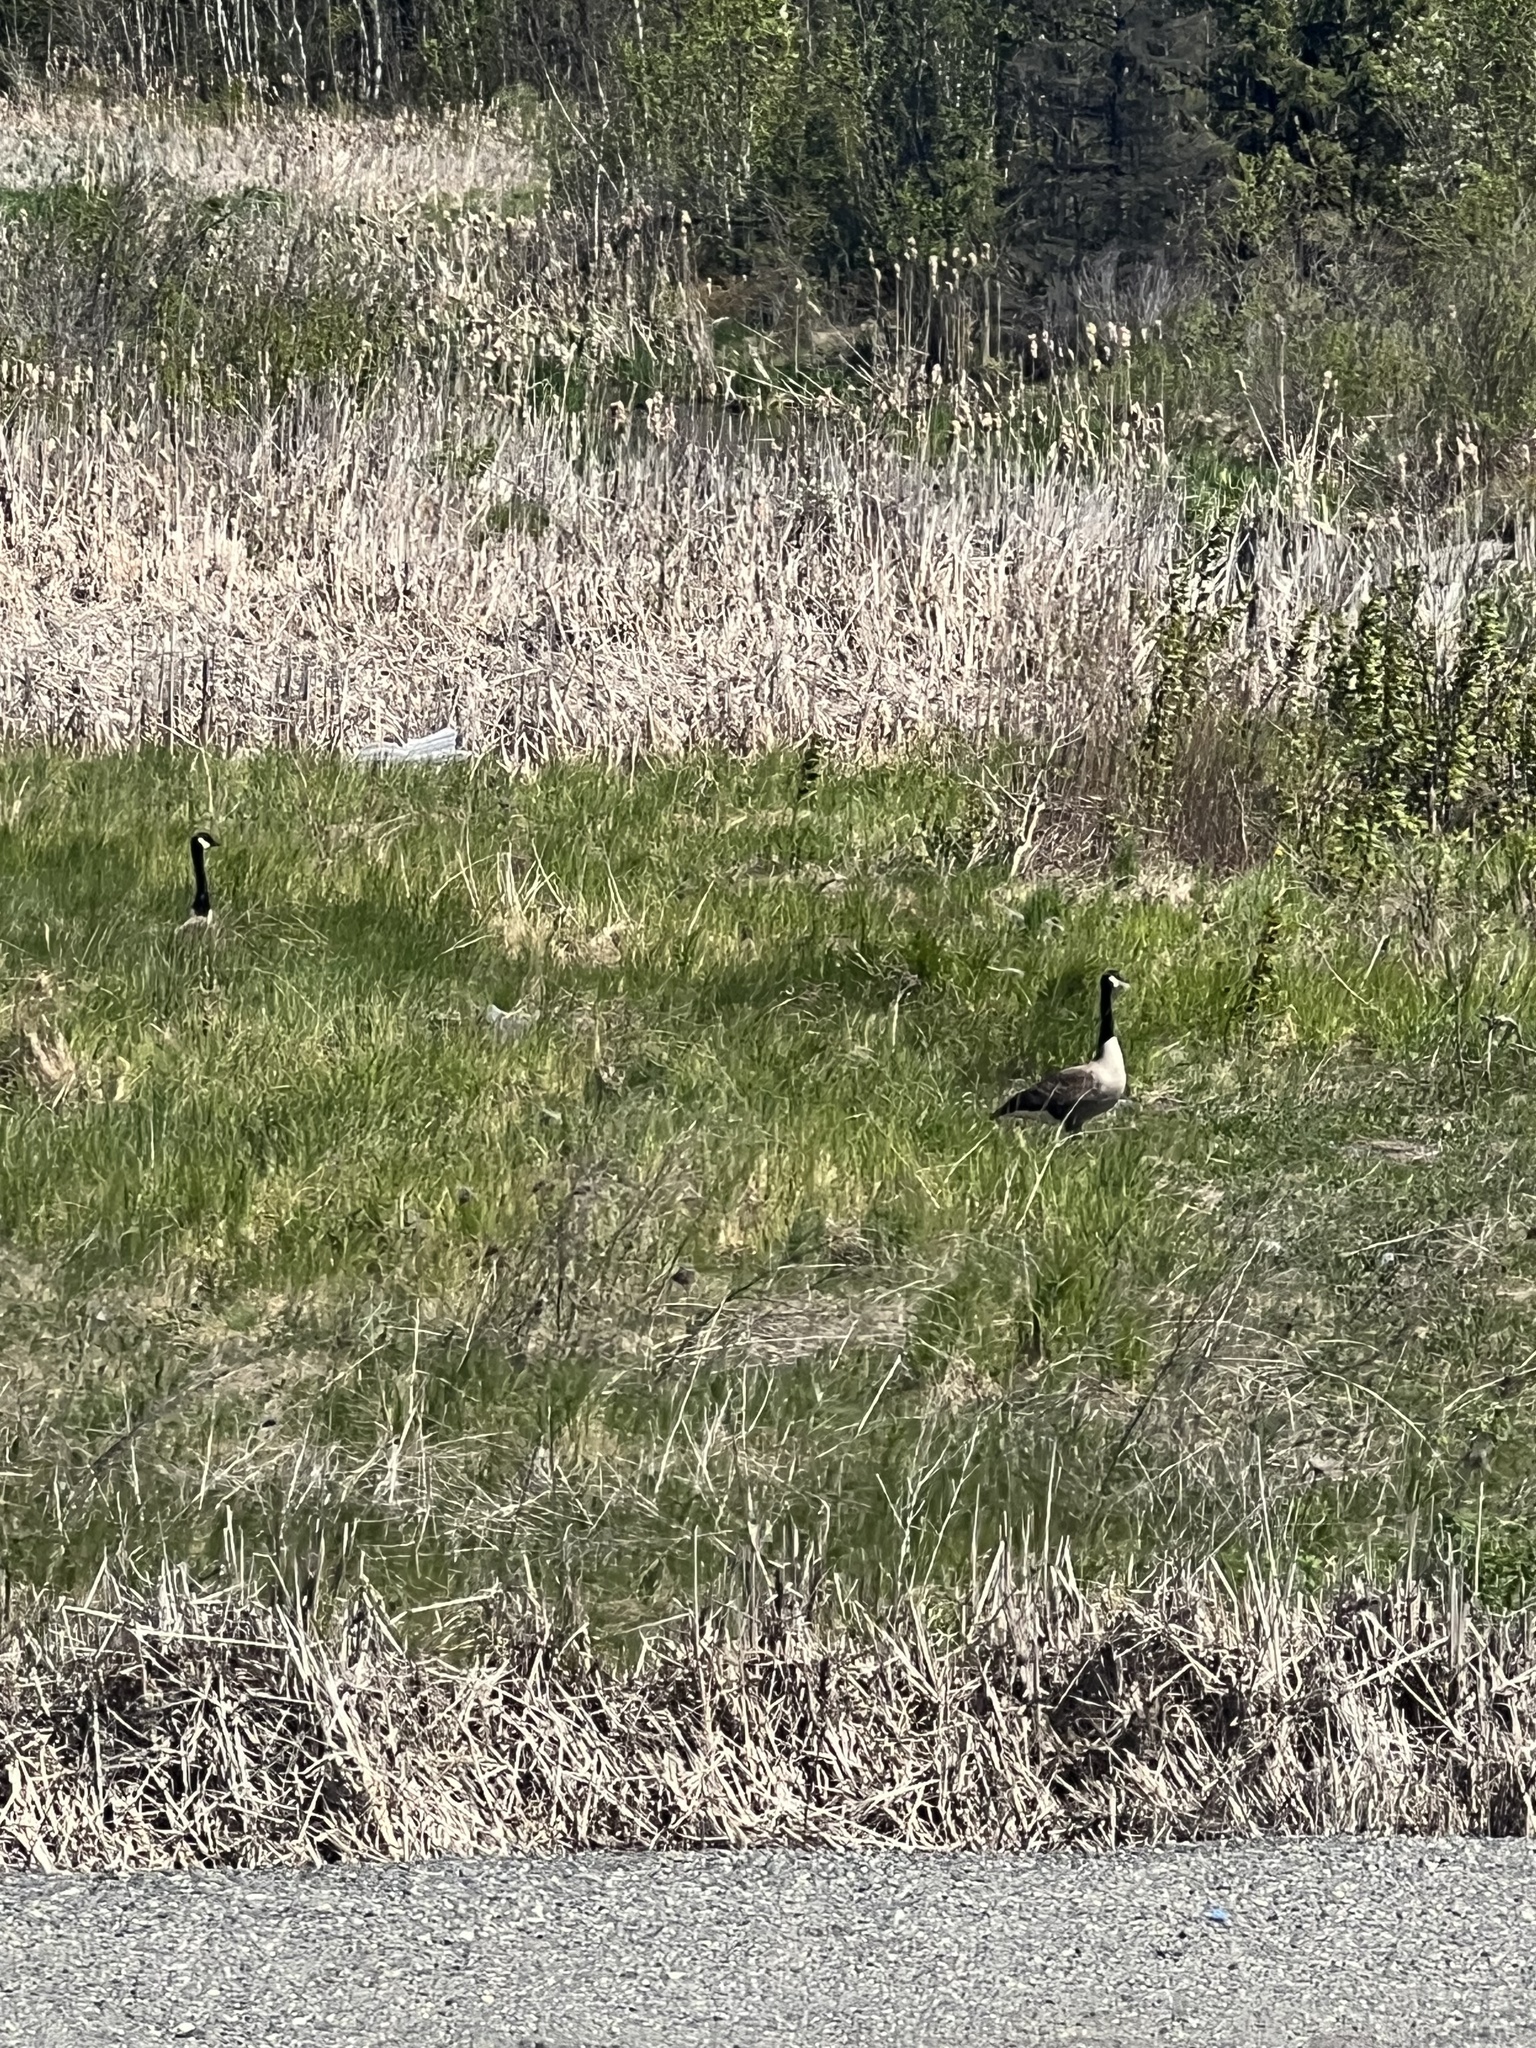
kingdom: Animalia
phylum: Chordata
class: Aves
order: Anseriformes
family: Anatidae
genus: Branta
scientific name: Branta canadensis
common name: Canada goose
